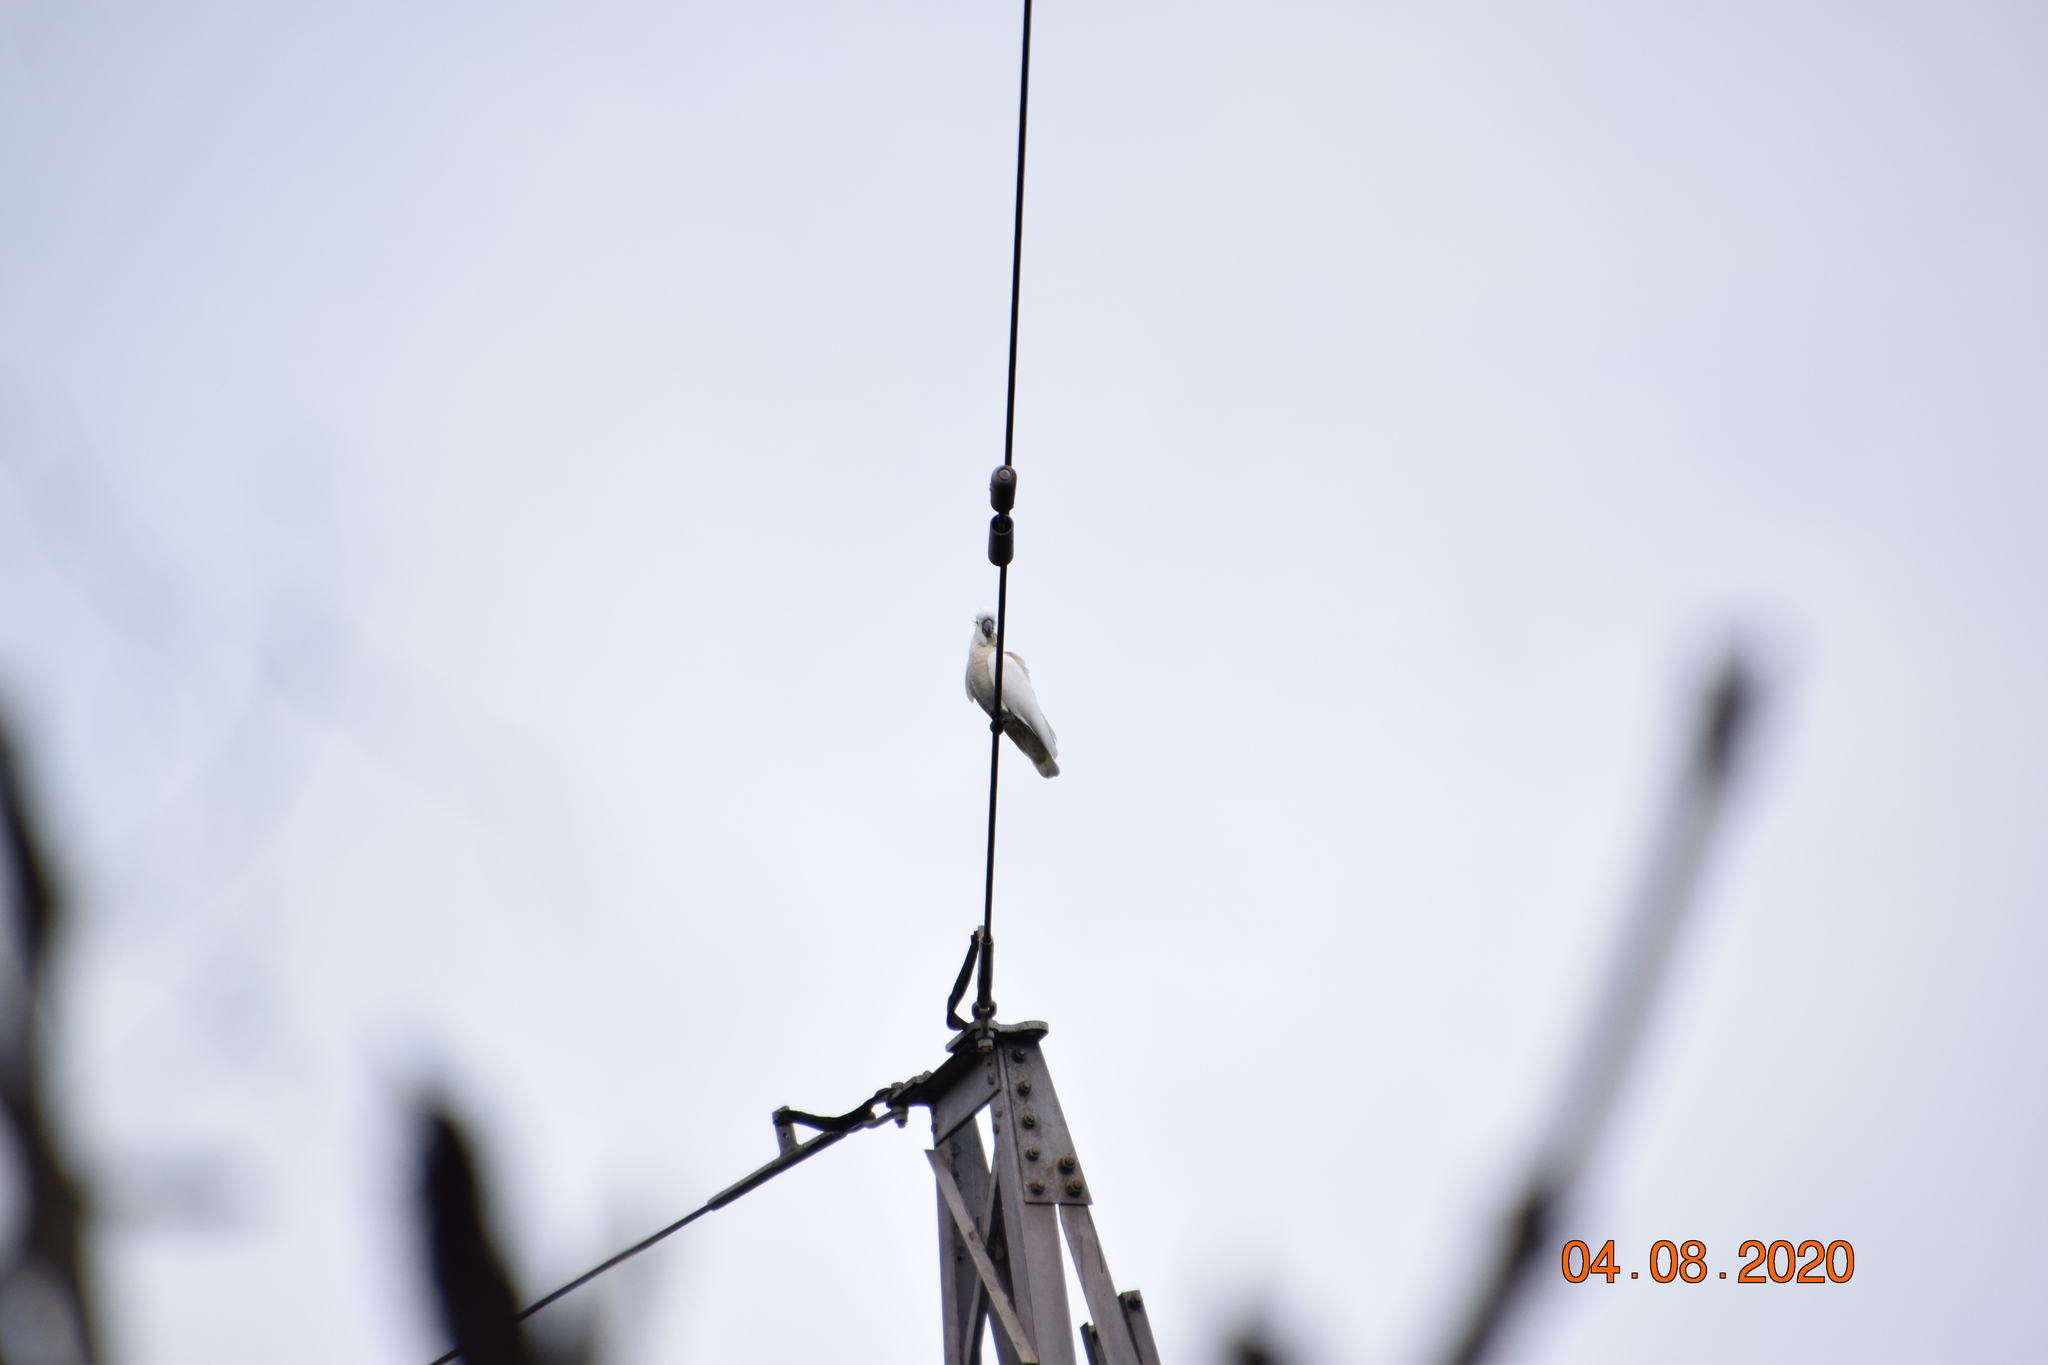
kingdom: Animalia
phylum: Chordata
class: Aves
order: Psittaciformes
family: Psittacidae
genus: Cacatua
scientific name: Cacatua galerita
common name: Sulphur-crested cockatoo
